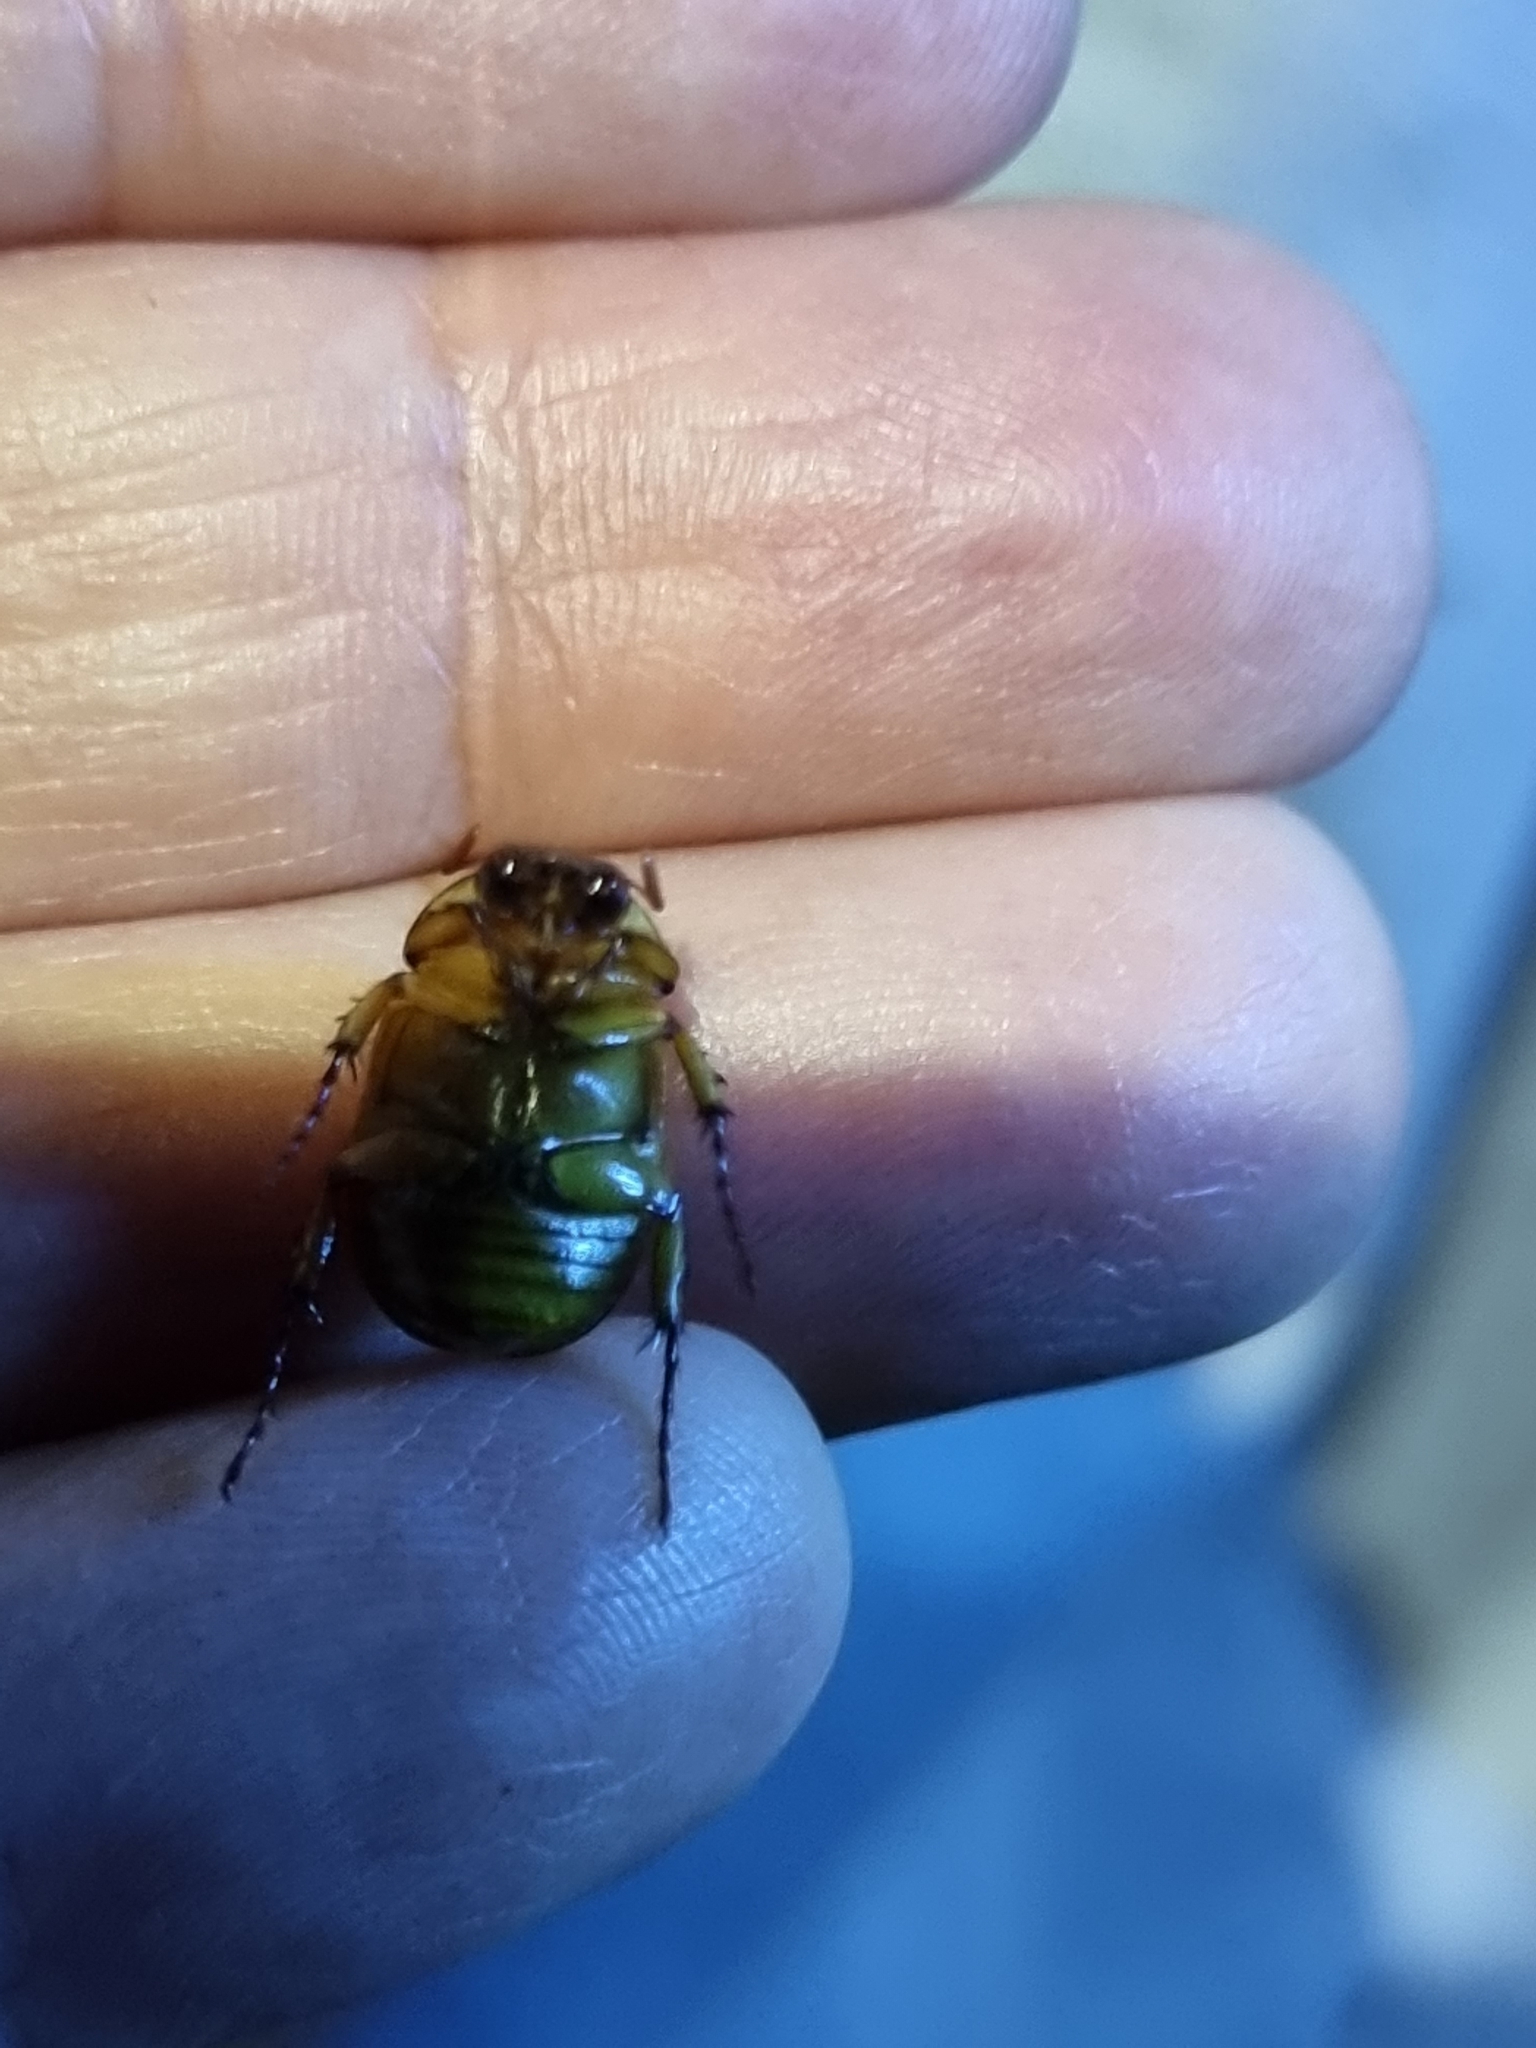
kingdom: Animalia
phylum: Arthropoda
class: Insecta
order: Coleoptera
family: Scarabaeidae
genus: Cyclocephala
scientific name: Cyclocephala signaticollis
